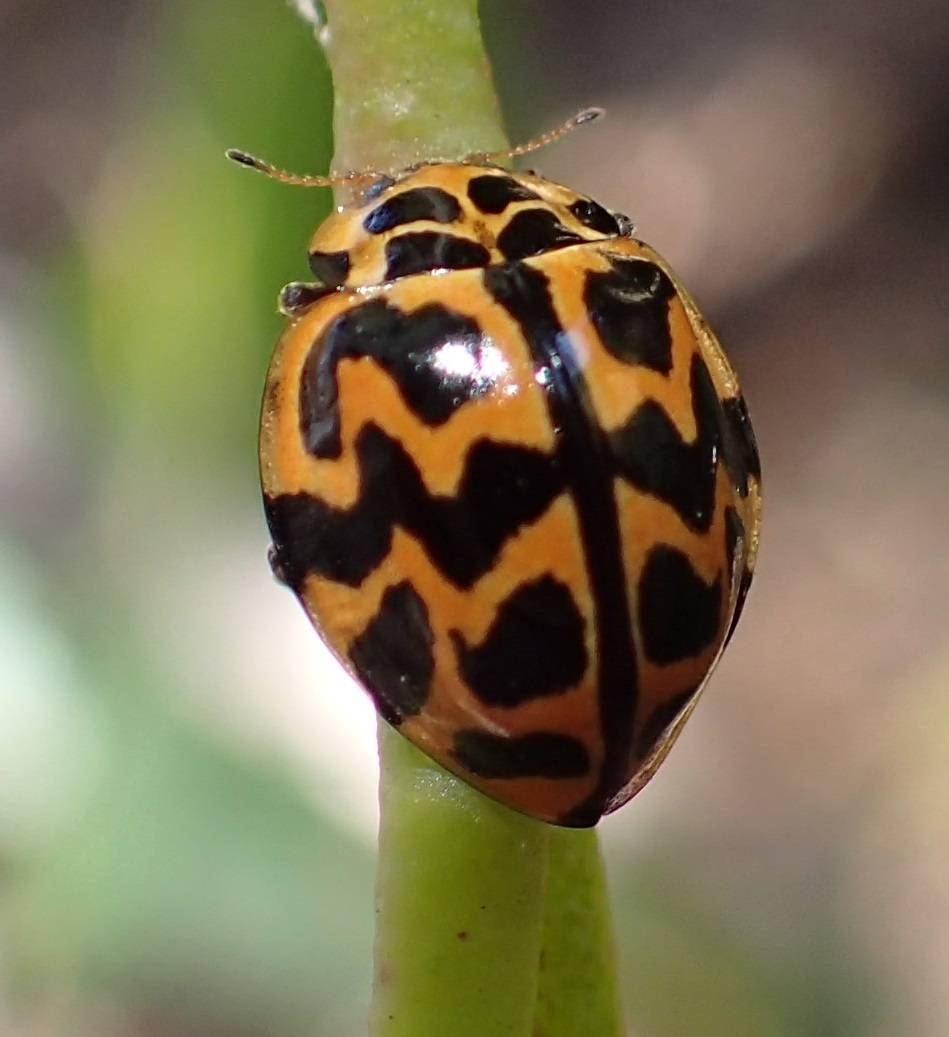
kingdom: Animalia
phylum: Arthropoda
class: Insecta
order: Coleoptera
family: Coccinellidae
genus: Cleobora
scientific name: Cleobora
